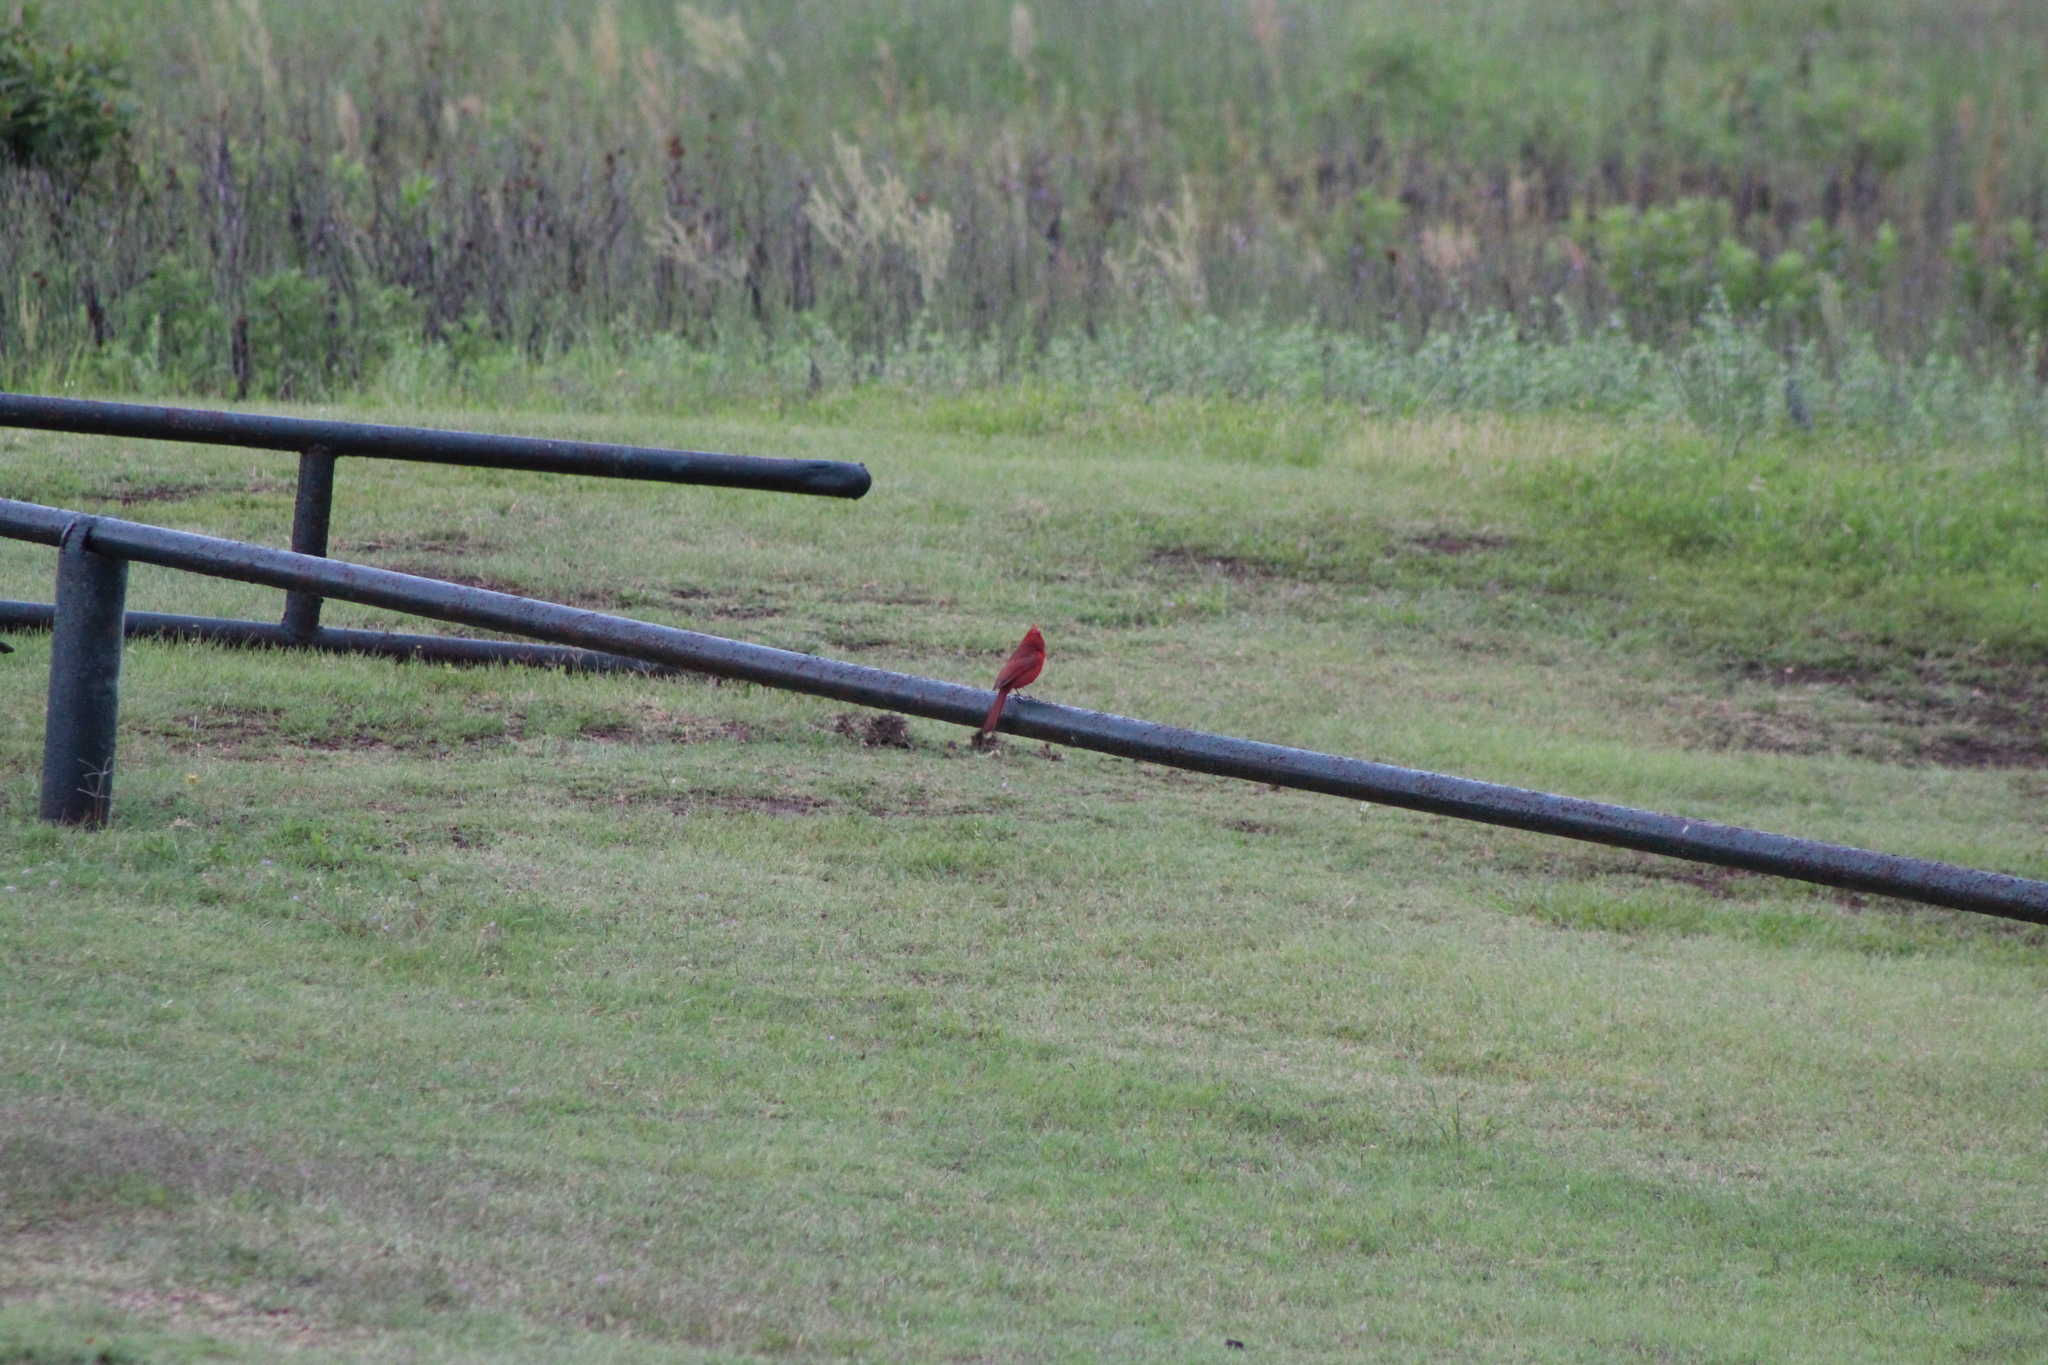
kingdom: Animalia
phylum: Chordata
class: Aves
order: Passeriformes
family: Cardinalidae
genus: Cardinalis
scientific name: Cardinalis cardinalis
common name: Northern cardinal
